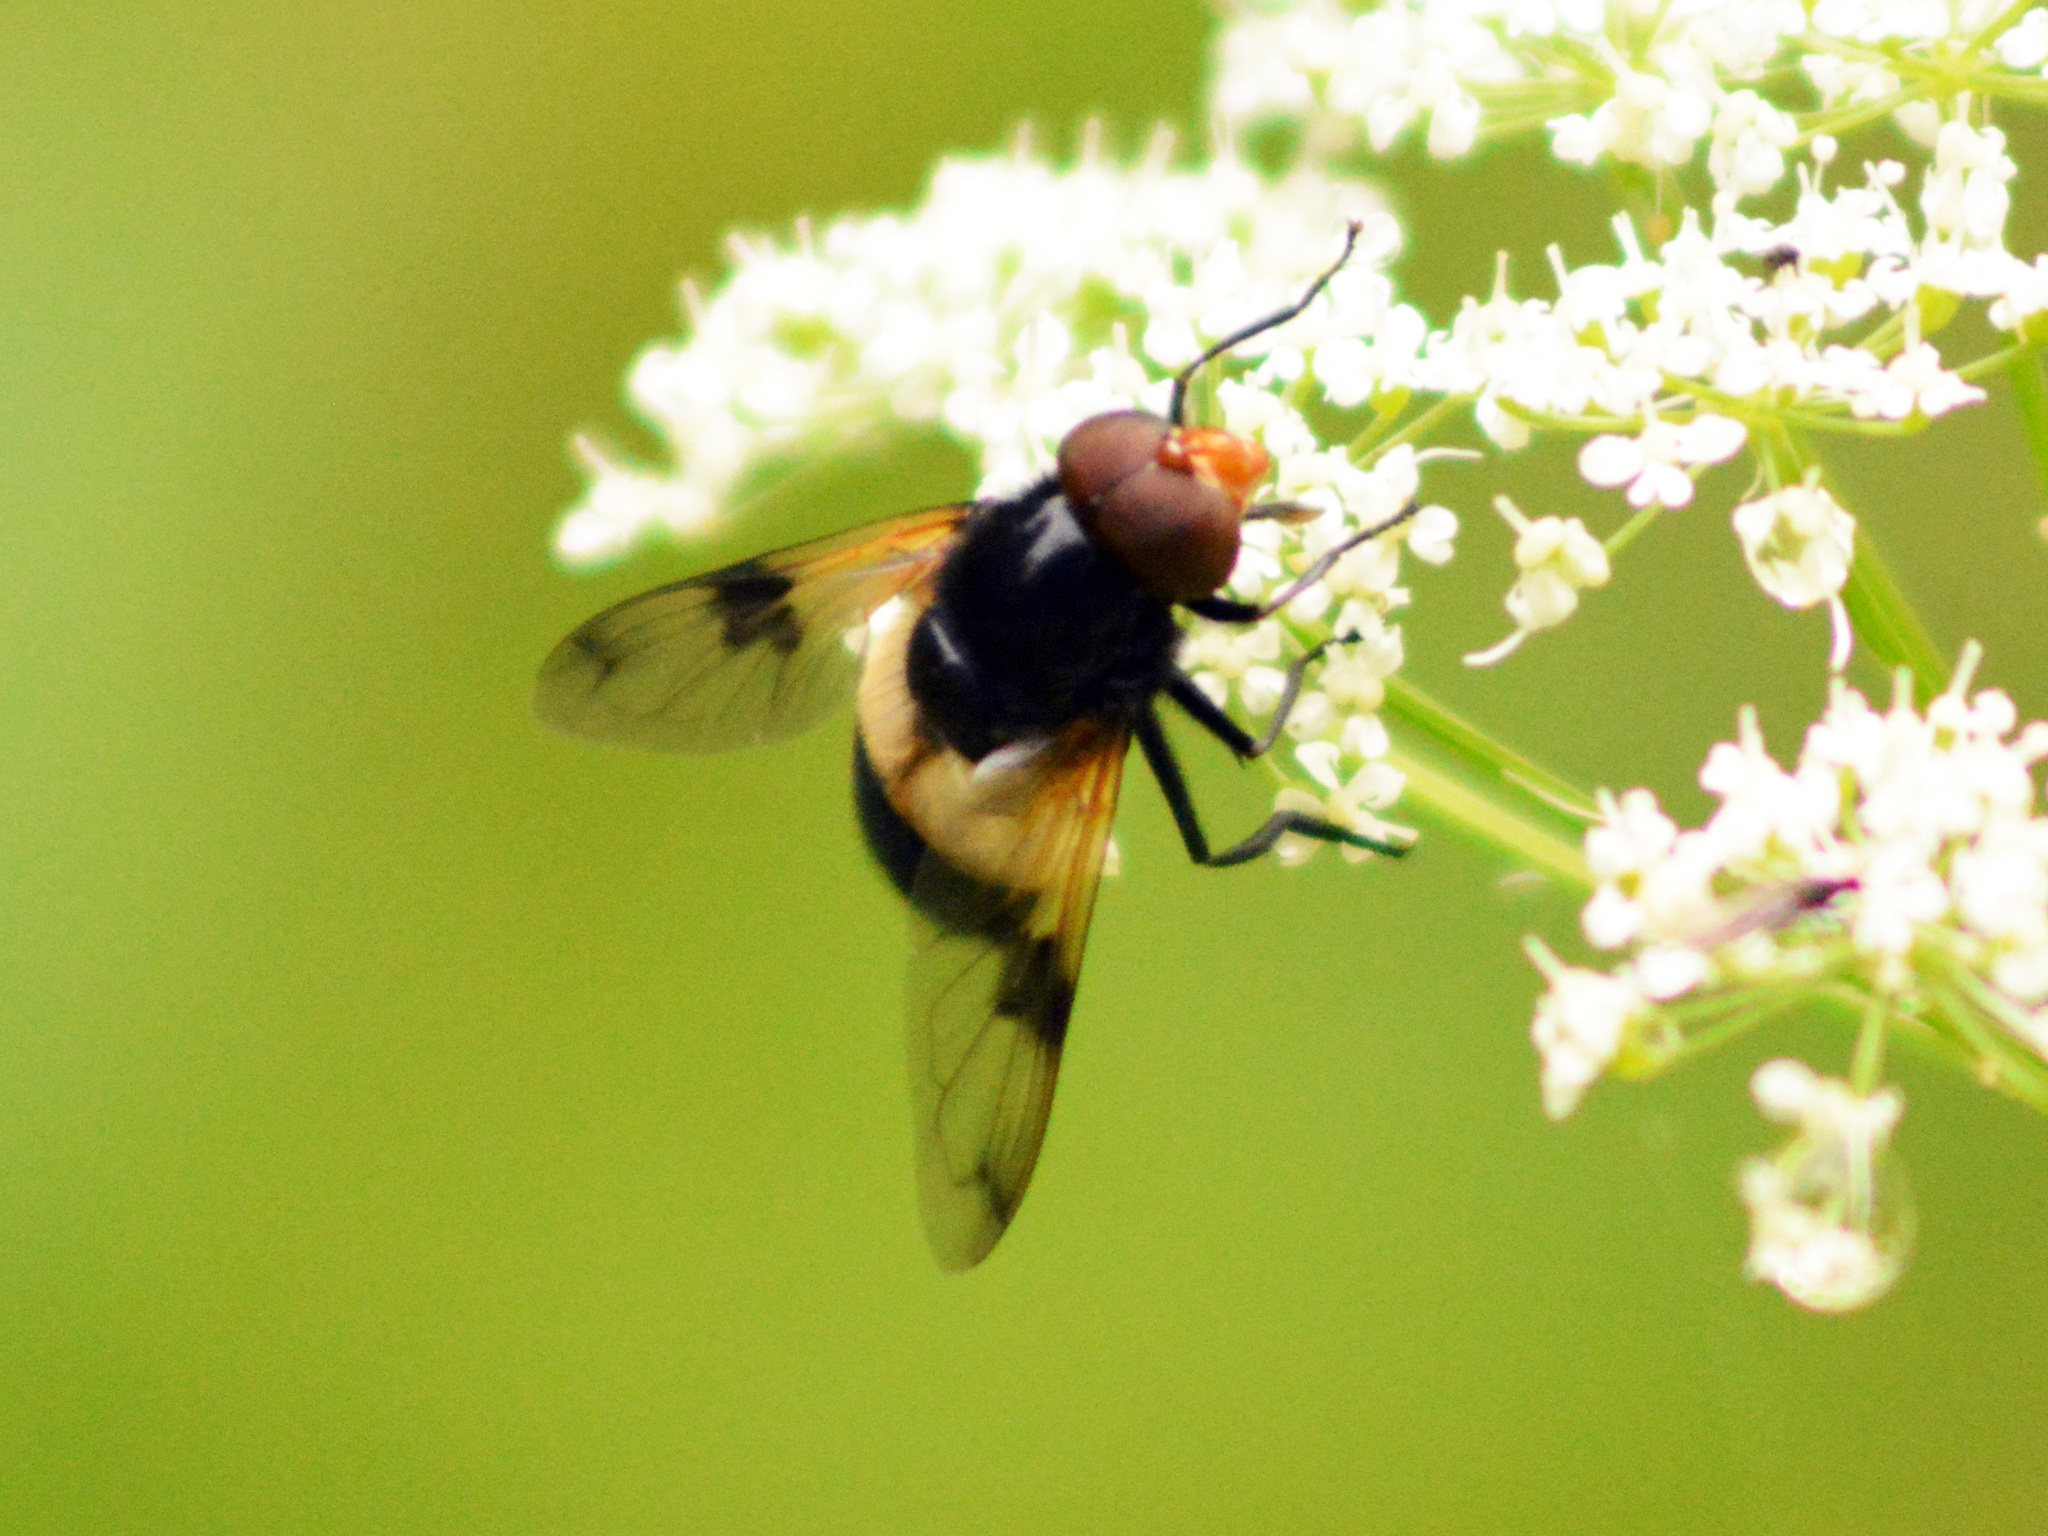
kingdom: Animalia
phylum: Arthropoda
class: Insecta
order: Diptera
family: Syrphidae
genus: Volucella
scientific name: Volucella pellucens
